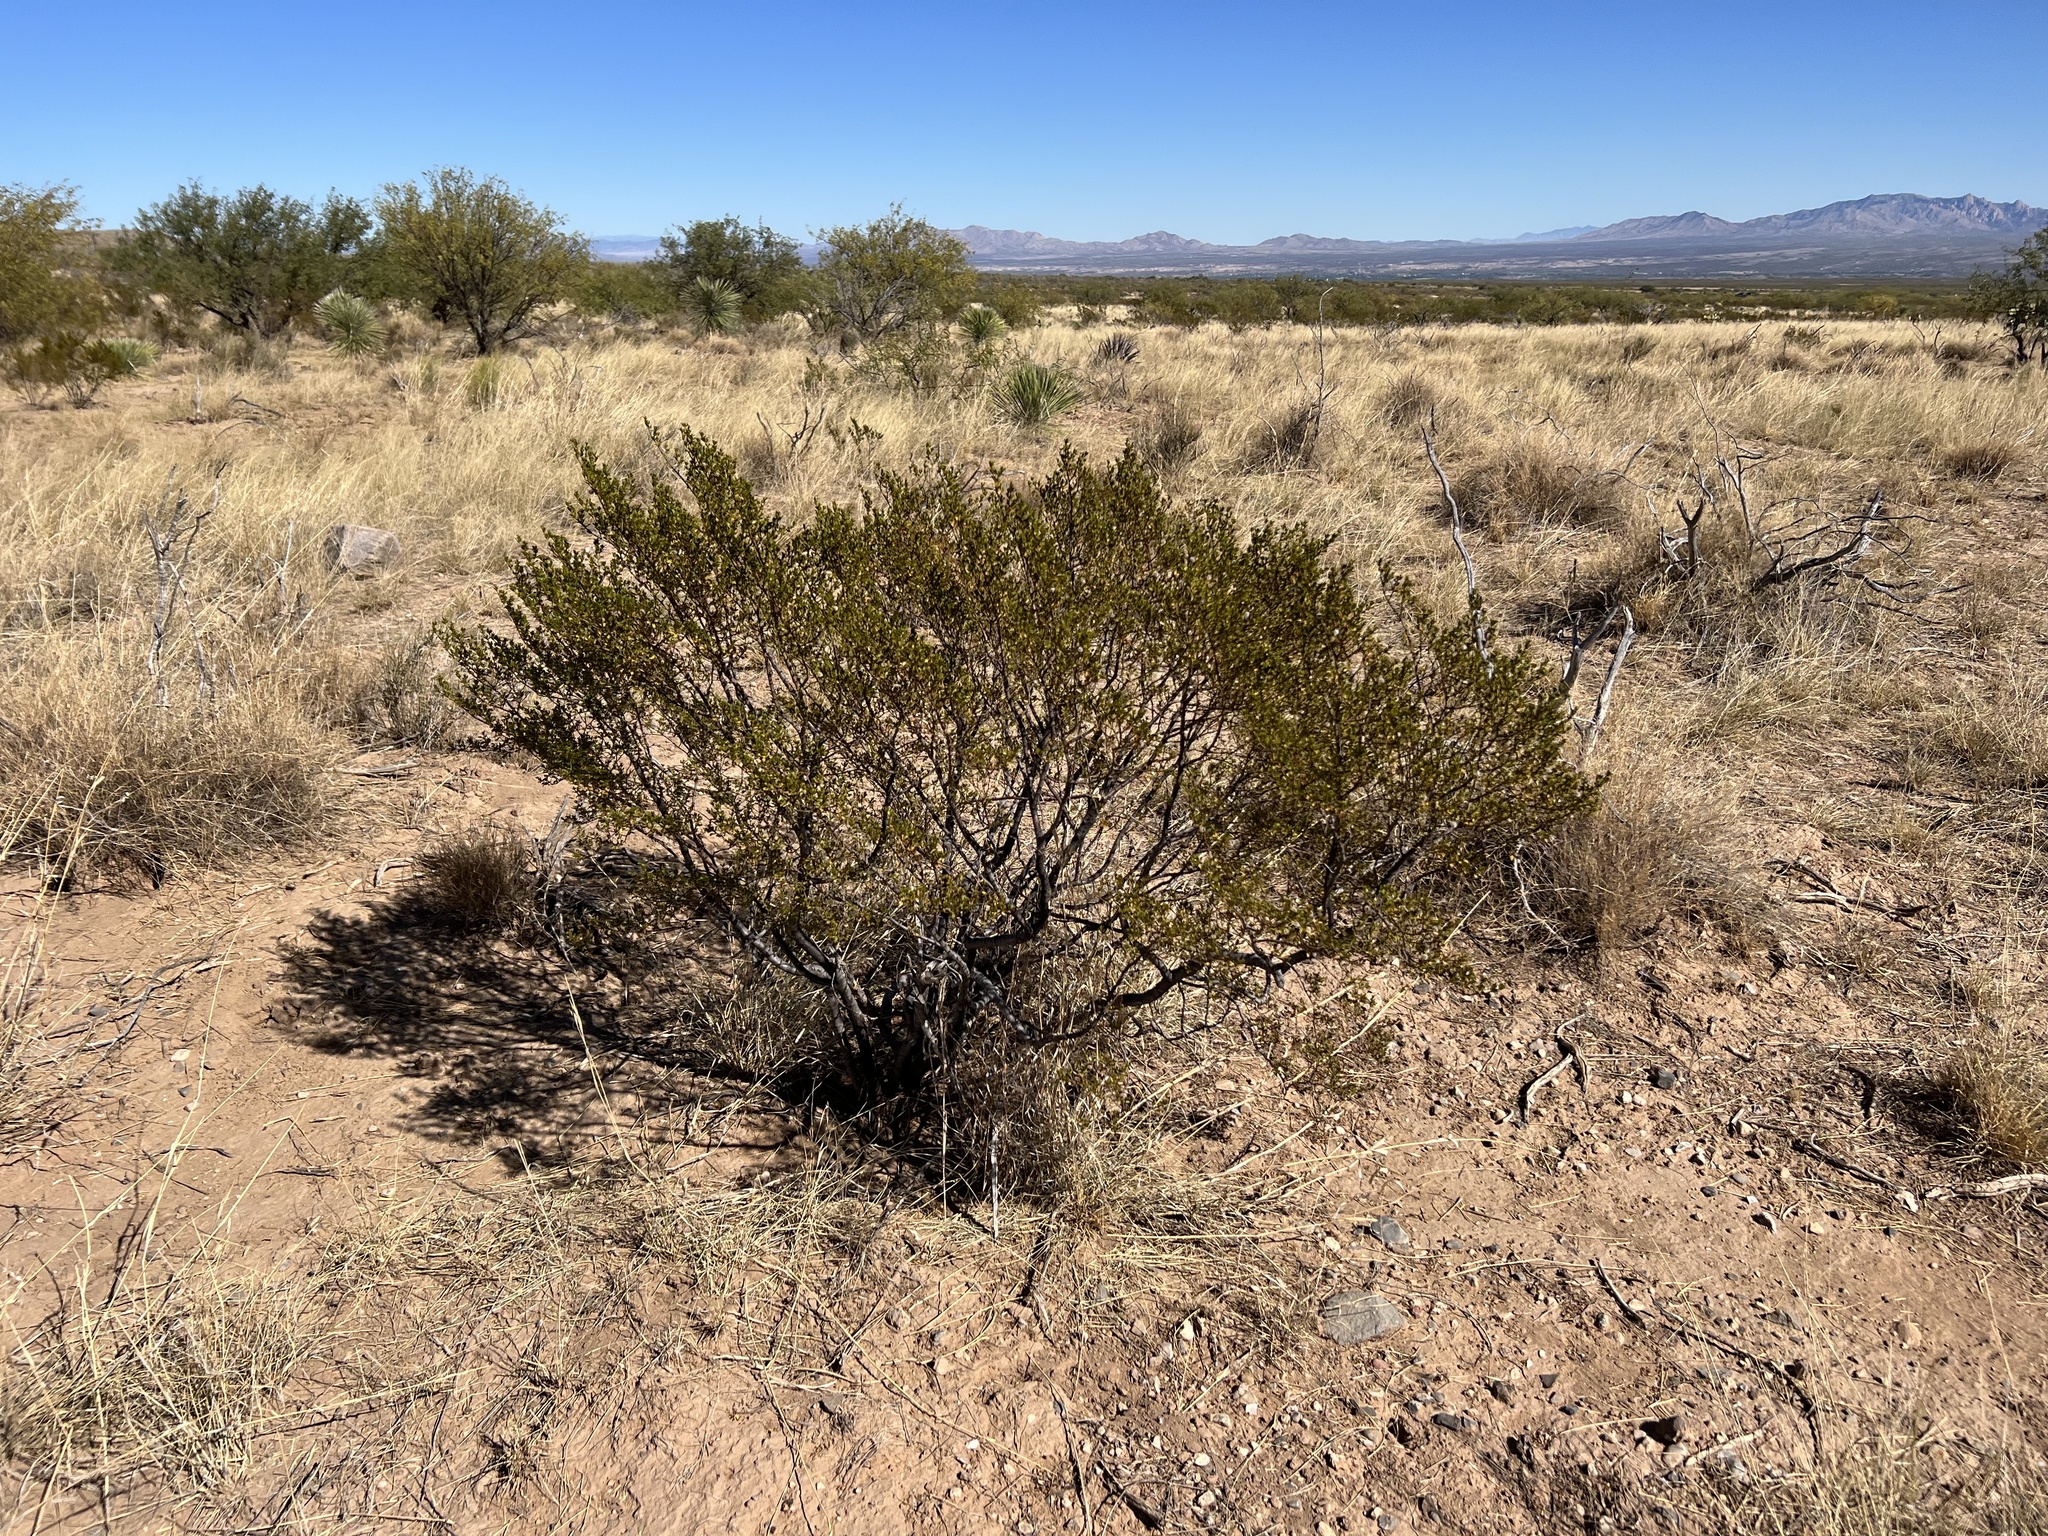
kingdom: Plantae
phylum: Tracheophyta
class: Magnoliopsida
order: Zygophyllales
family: Zygophyllaceae
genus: Larrea
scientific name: Larrea tridentata
